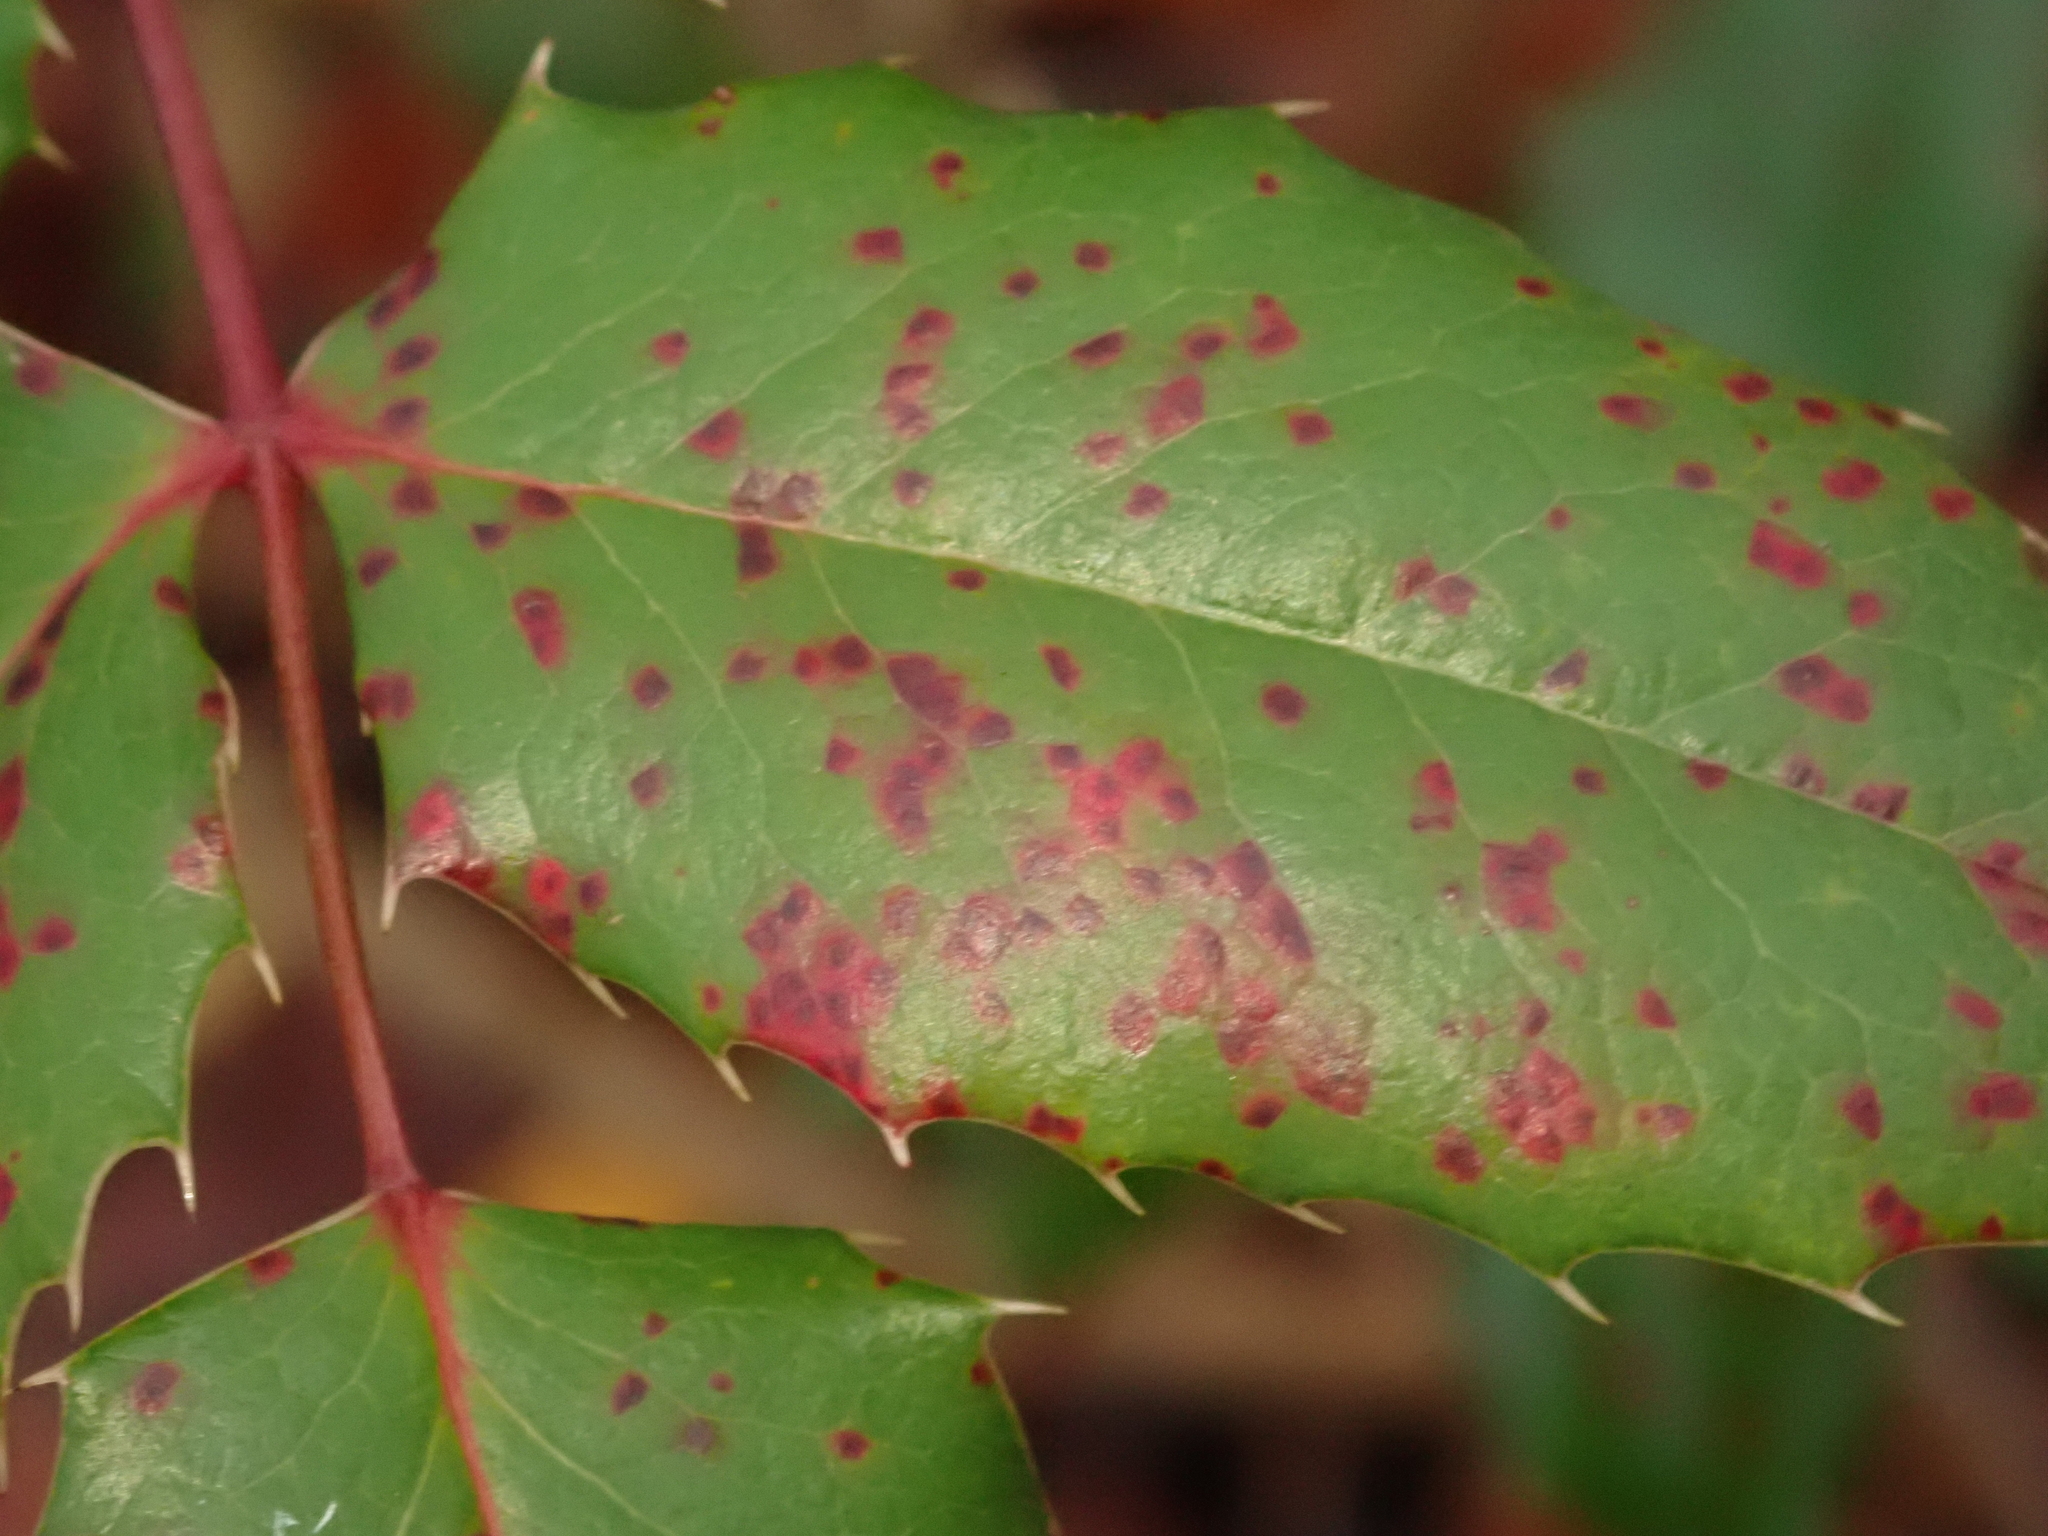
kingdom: Fungi
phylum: Basidiomycota
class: Pucciniomycetes
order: Pucciniales
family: Pucciniaceae
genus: Cumminsiella
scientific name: Cumminsiella mirabilissima
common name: Mahonia rust
